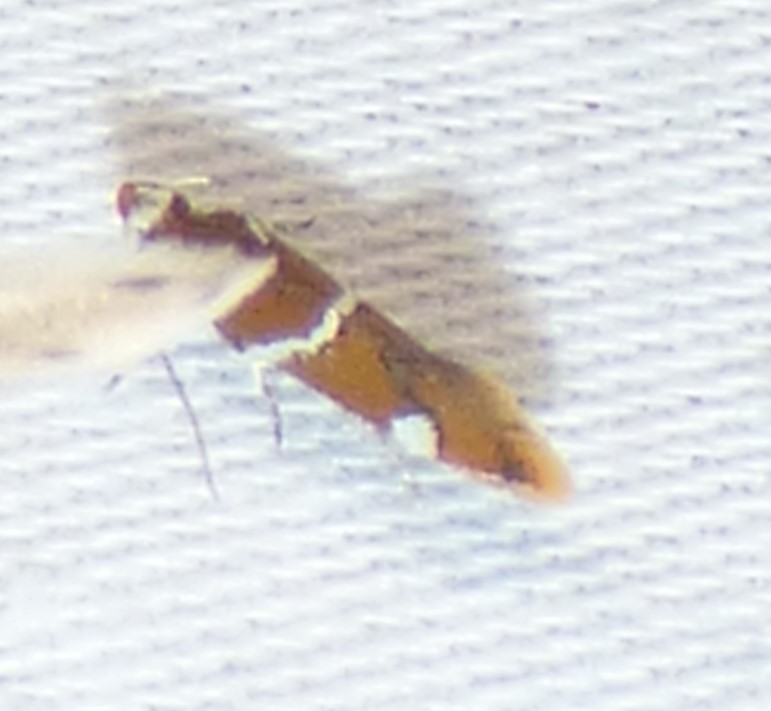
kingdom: Animalia
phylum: Arthropoda
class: Insecta
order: Lepidoptera
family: Oecophoridae
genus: Promalactis
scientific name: Promalactis suzukiella
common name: Moth
